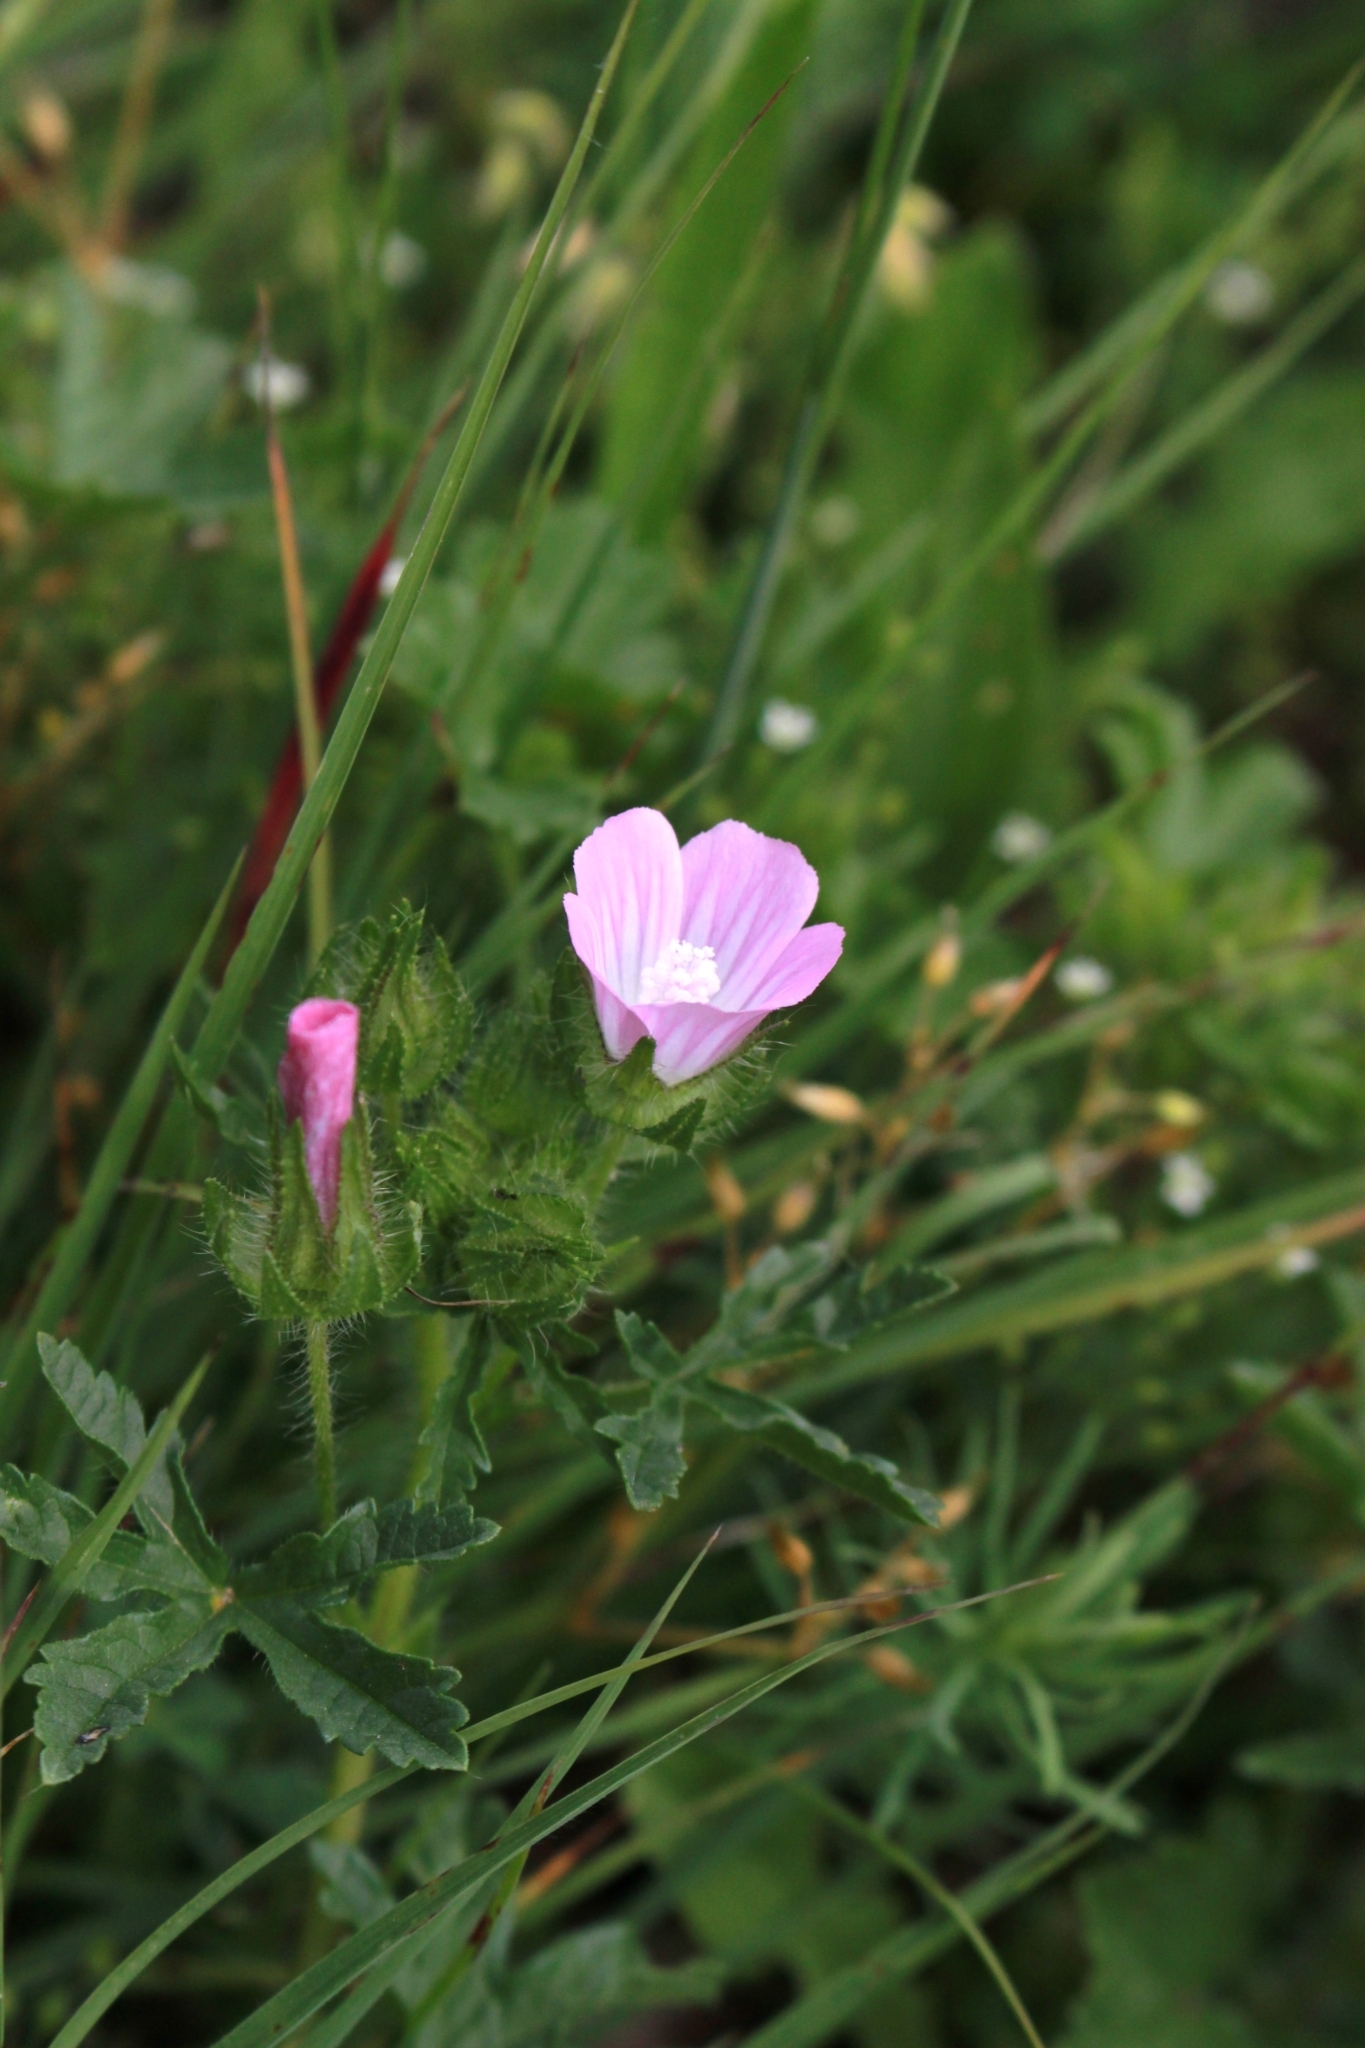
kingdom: Plantae
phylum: Tracheophyta
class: Magnoliopsida
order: Malvales
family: Malvaceae
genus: Althaea
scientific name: Althaea hirsuta
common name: Rough marsh-mallow
